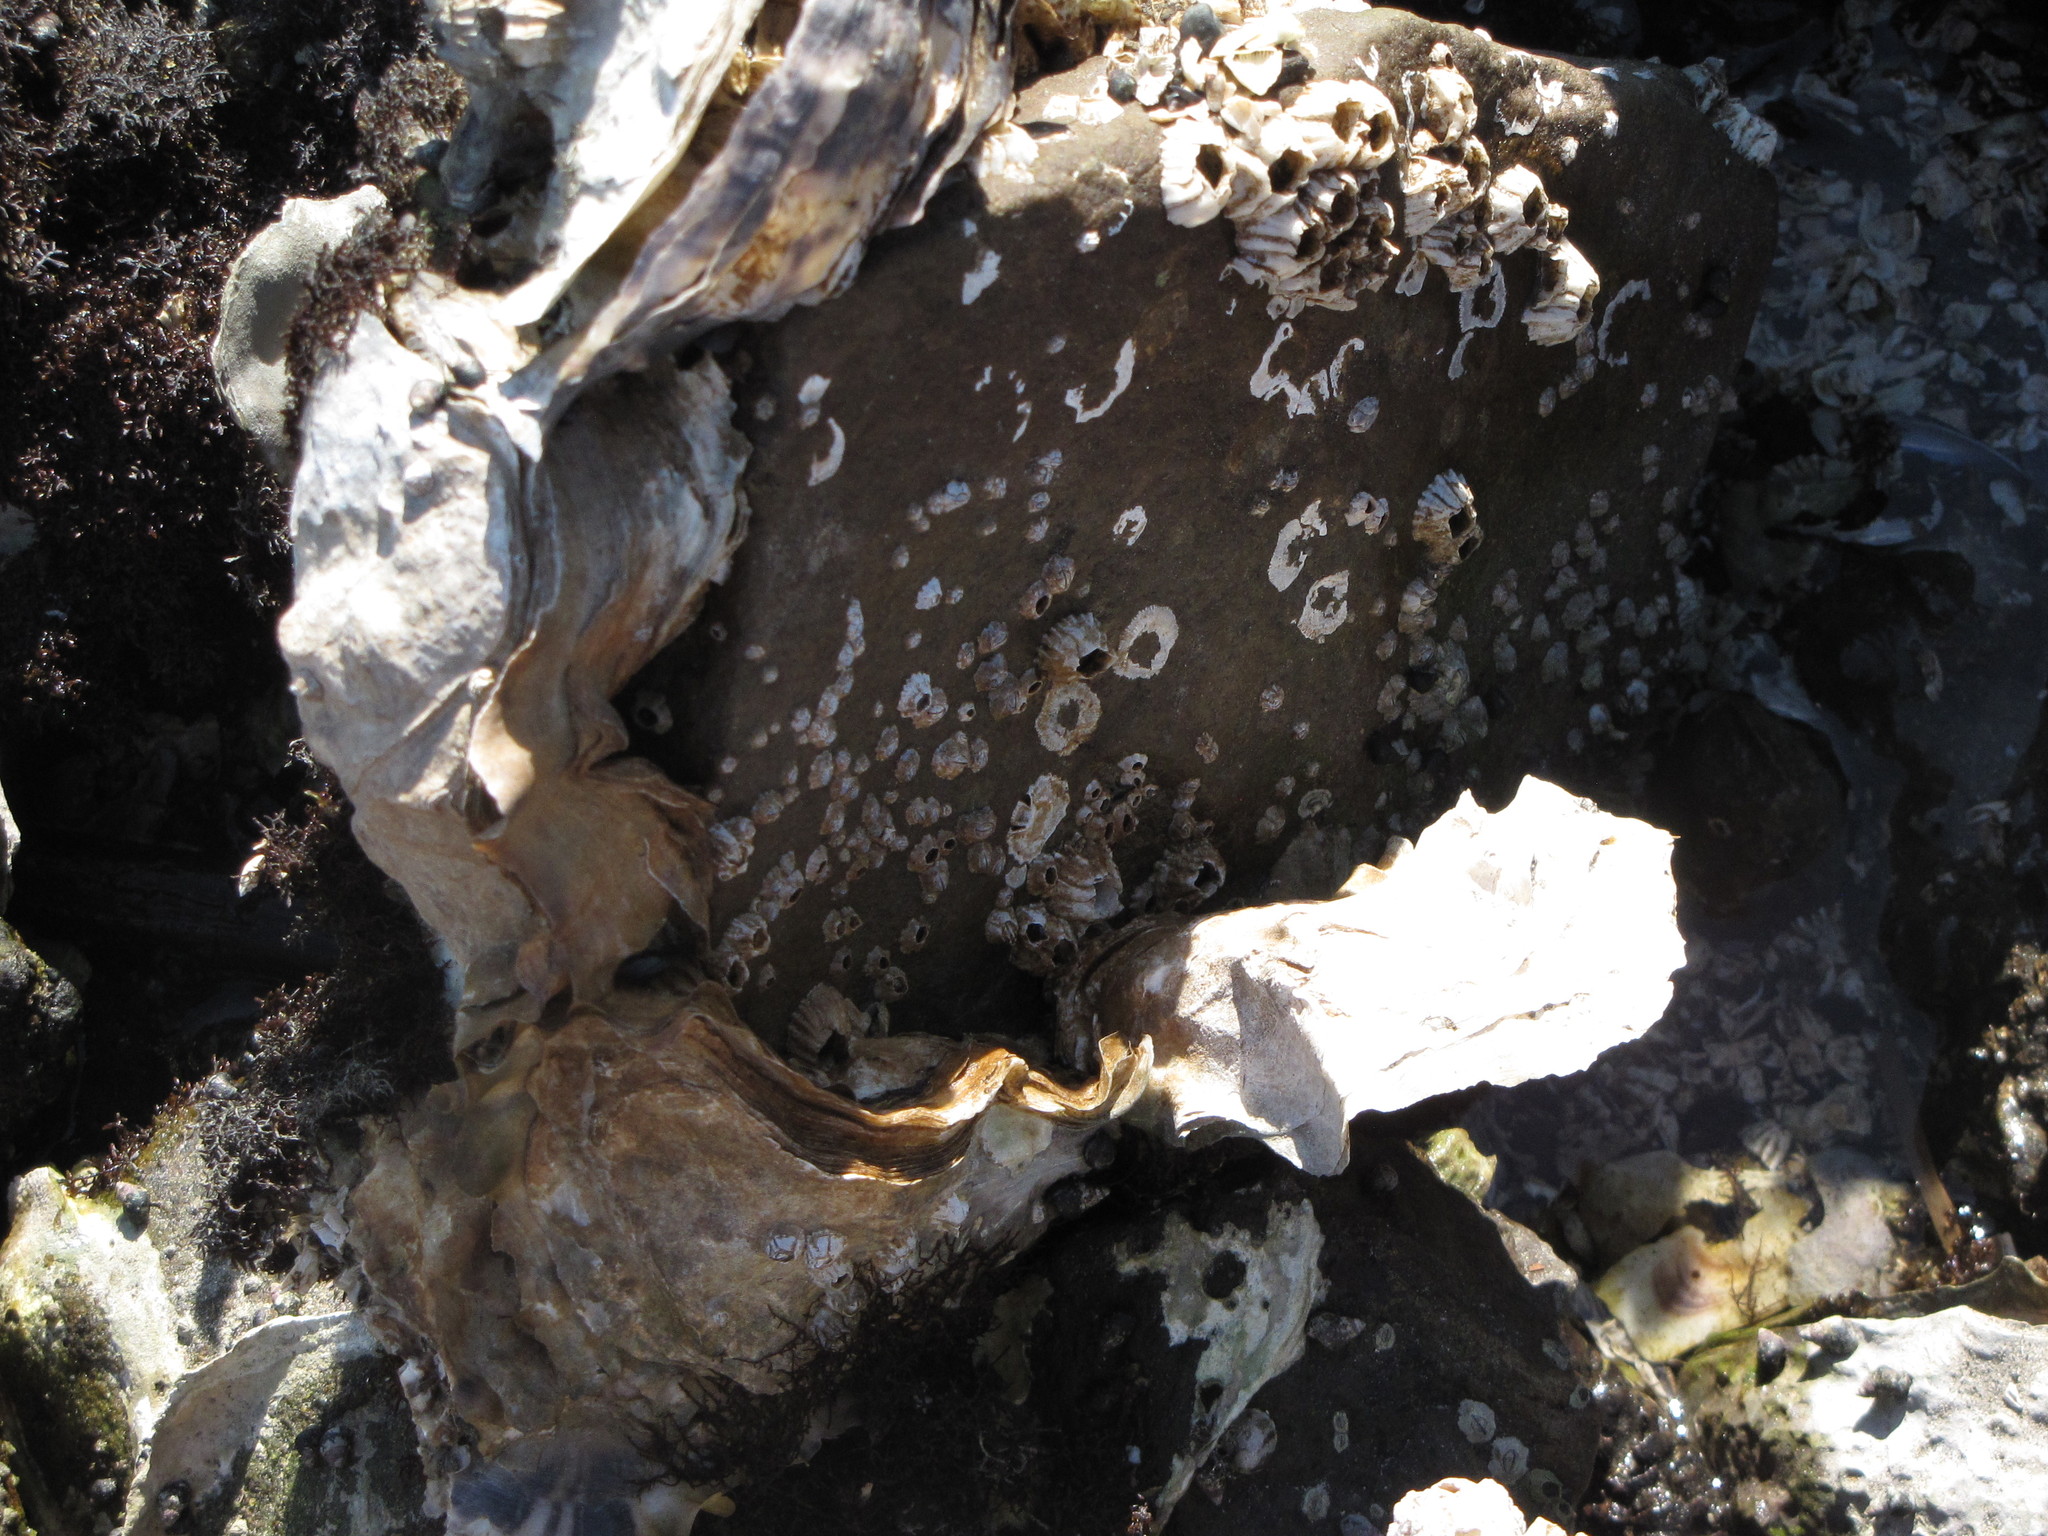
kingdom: Animalia
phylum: Mollusca
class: Bivalvia
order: Ostreida
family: Ostreidae
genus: Magallana
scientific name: Magallana gigas
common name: Pacific oyster
